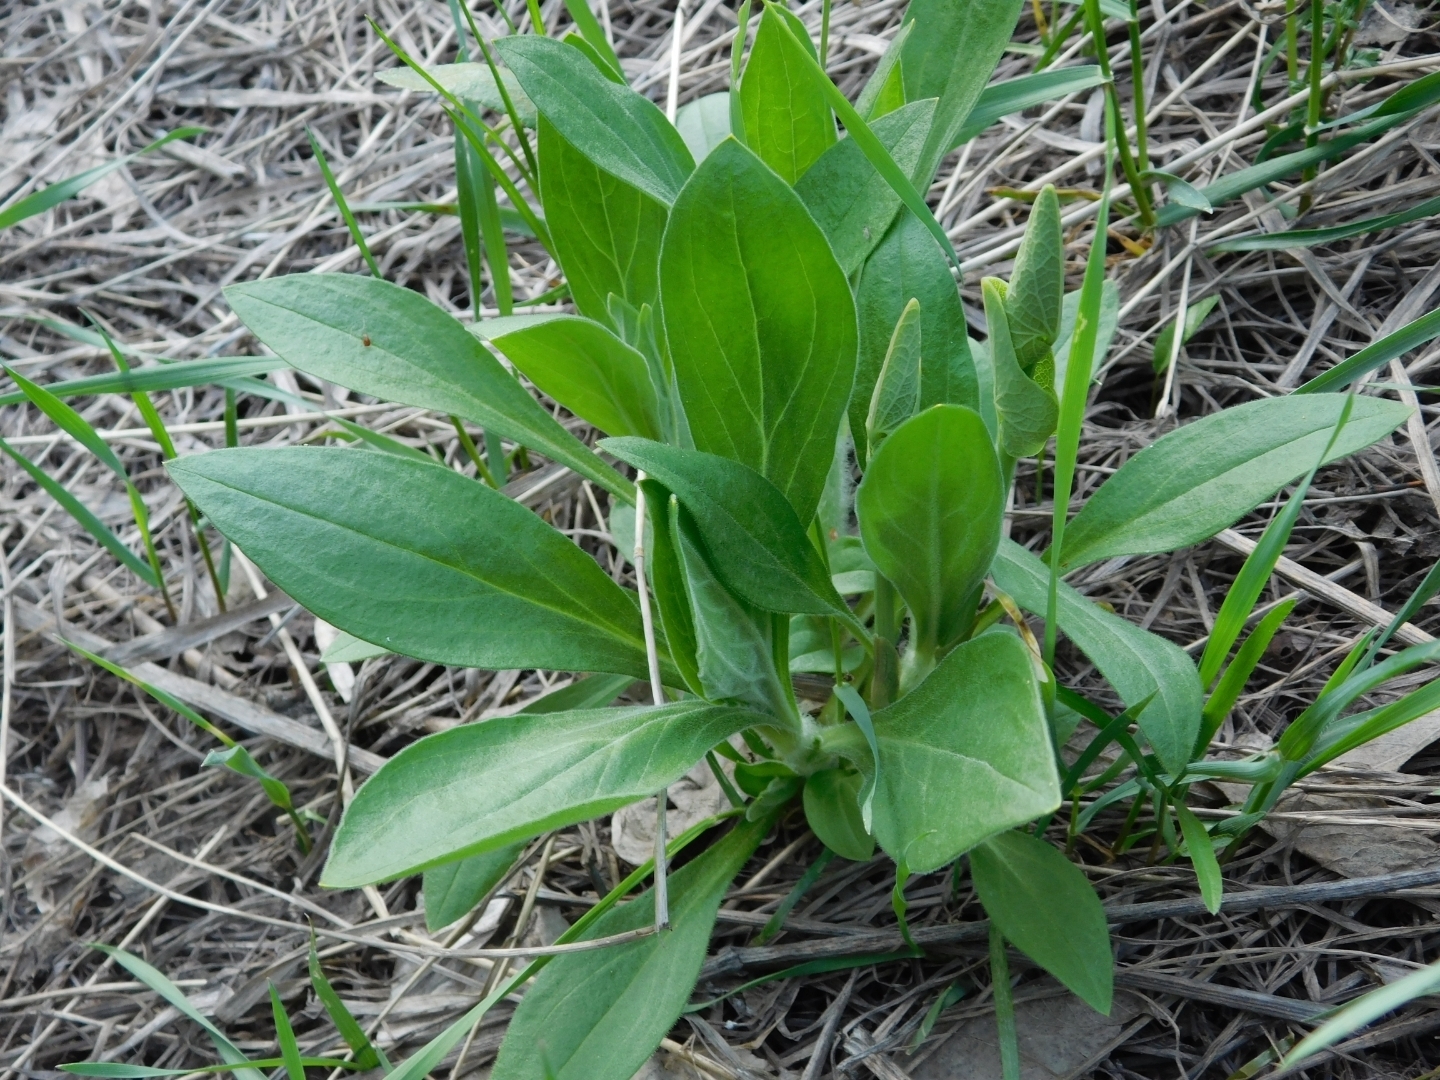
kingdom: Plantae
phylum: Tracheophyta
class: Magnoliopsida
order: Caryophyllales
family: Caryophyllaceae
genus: Silene
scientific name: Silene latifolia
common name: White campion
